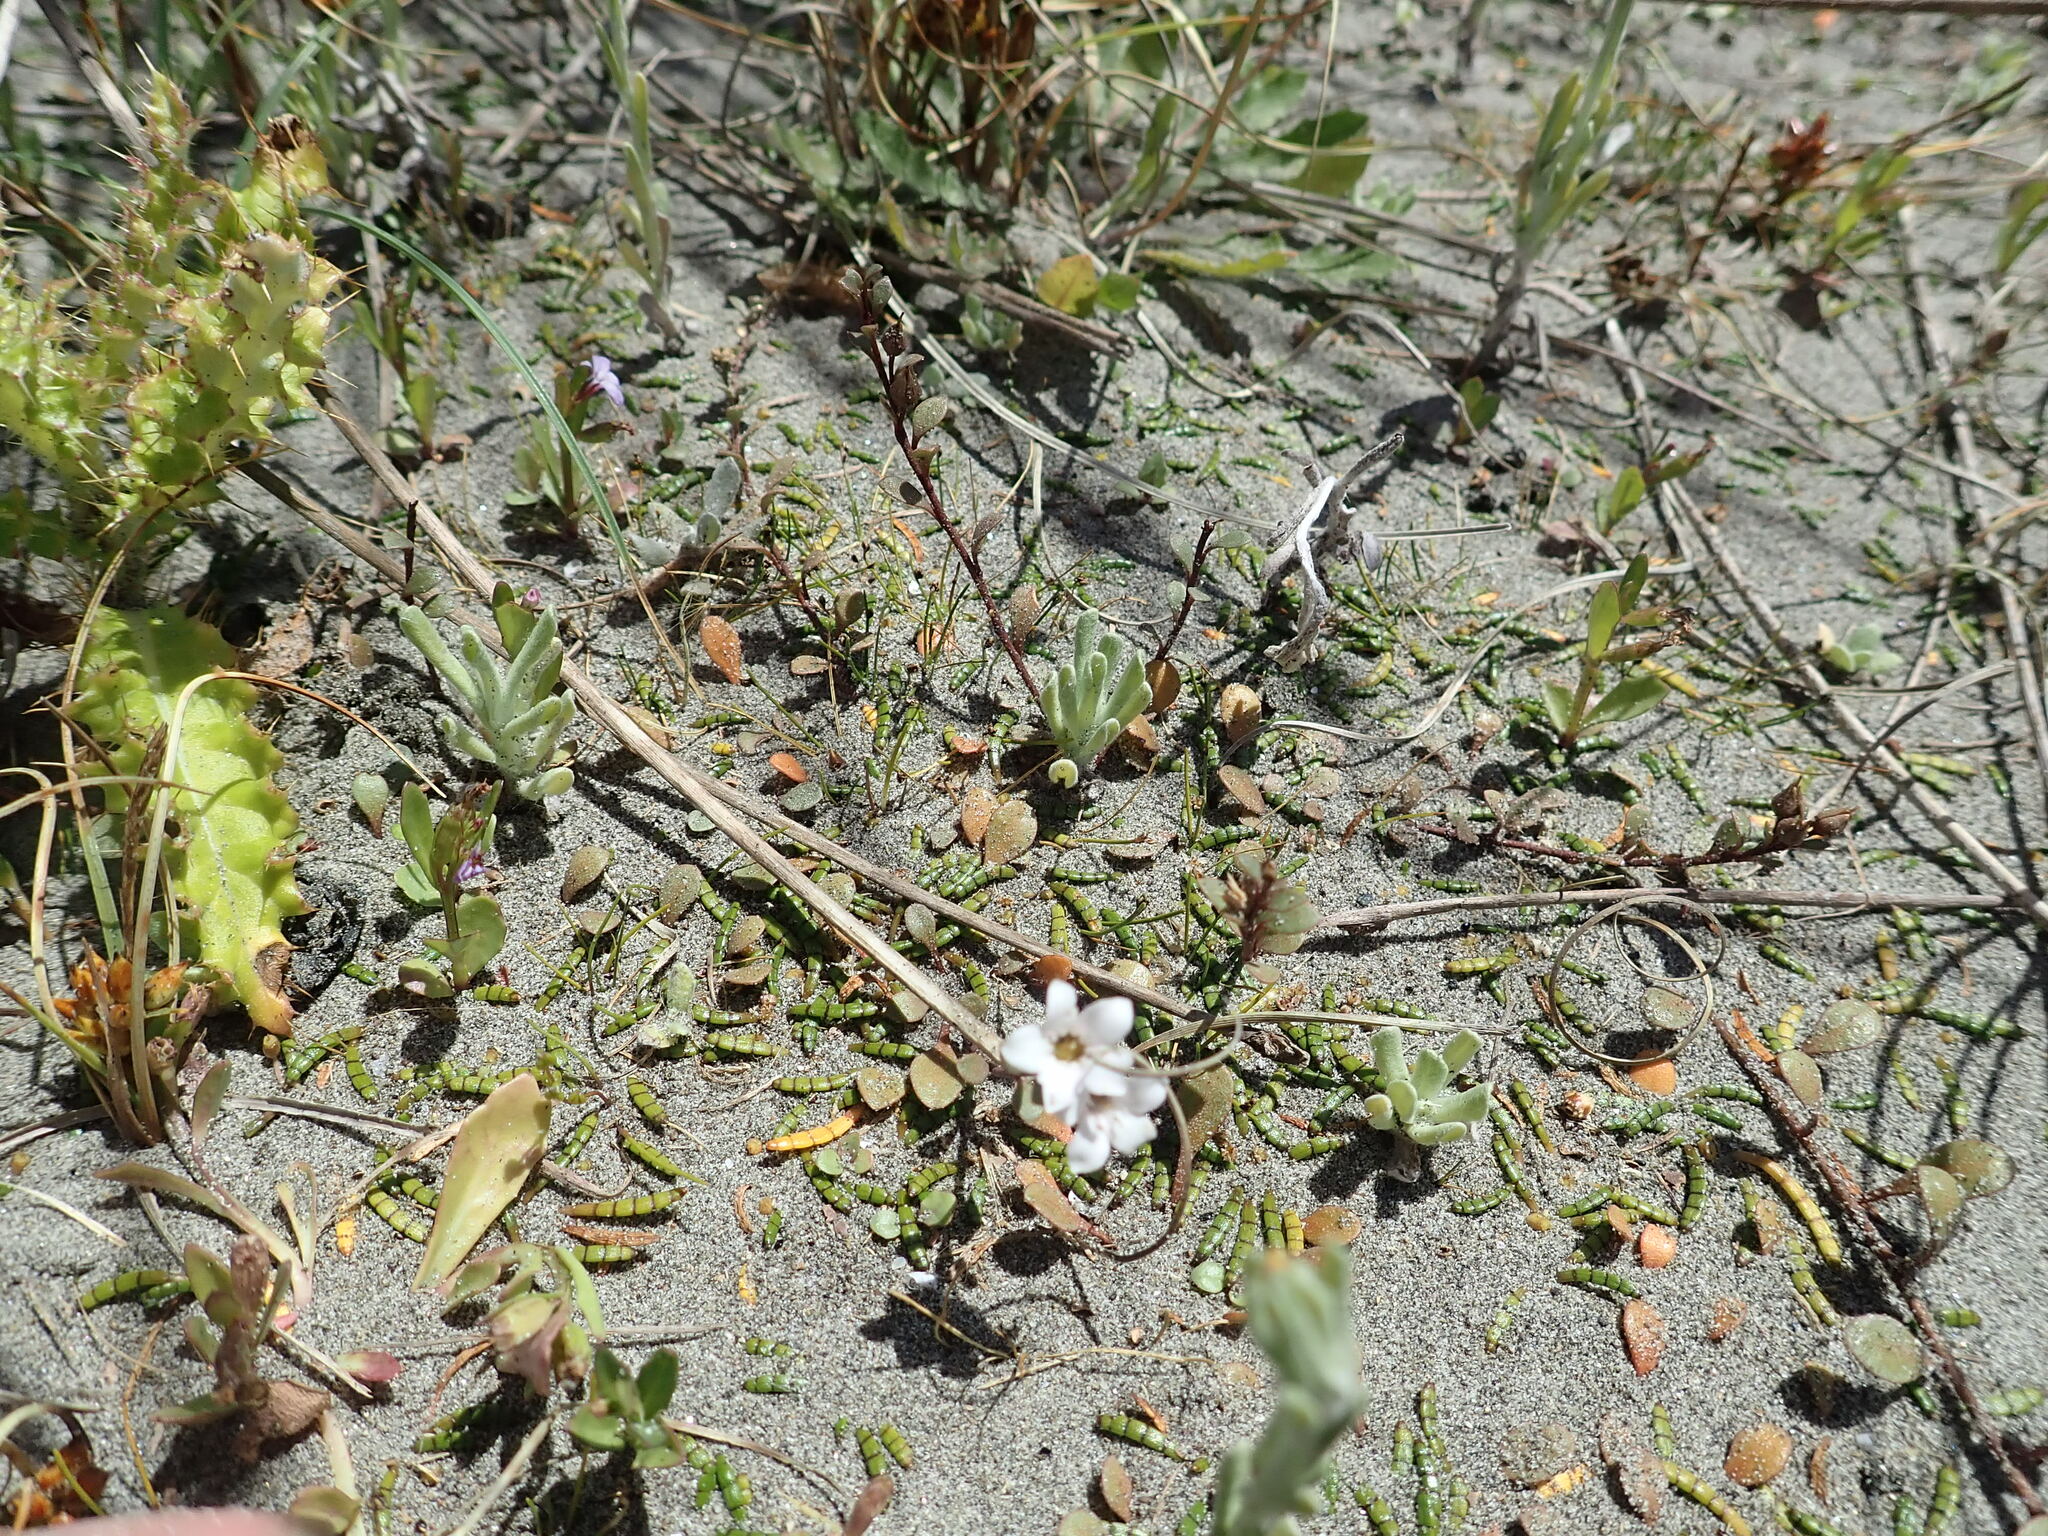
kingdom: Plantae
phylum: Tracheophyta
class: Magnoliopsida
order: Apiales
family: Apiaceae
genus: Lilaeopsis
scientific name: Lilaeopsis novae-zelandiae
